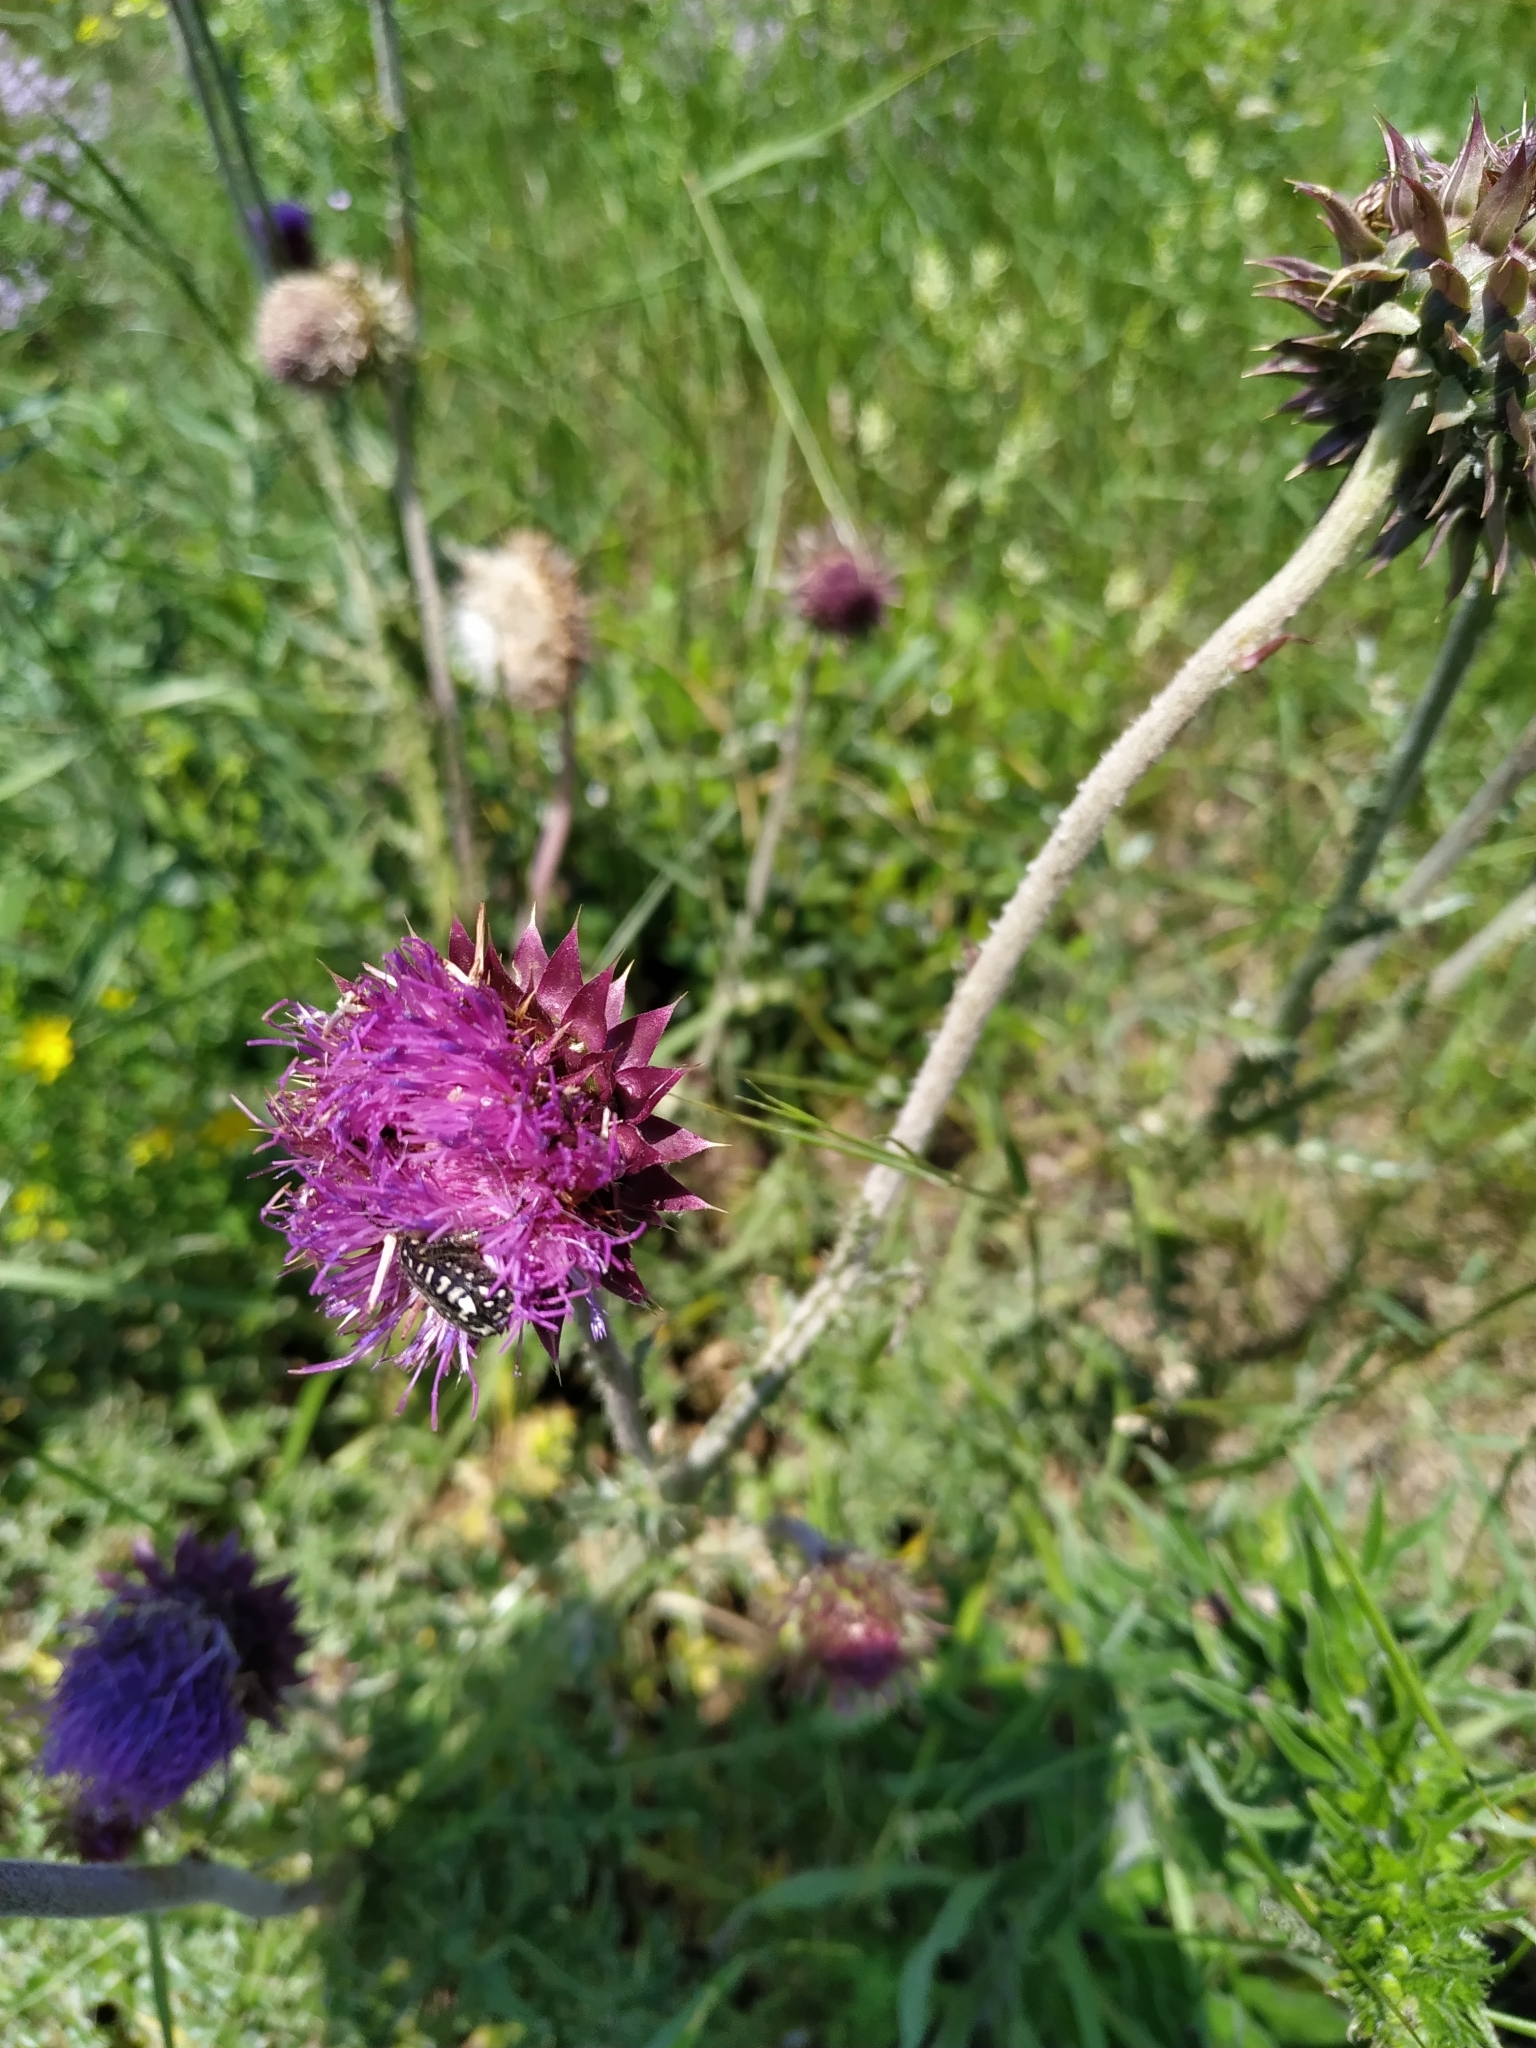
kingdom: Animalia
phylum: Arthropoda
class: Insecta
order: Coleoptera
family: Scarabaeidae
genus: Oxythyrea
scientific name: Oxythyrea funesta
